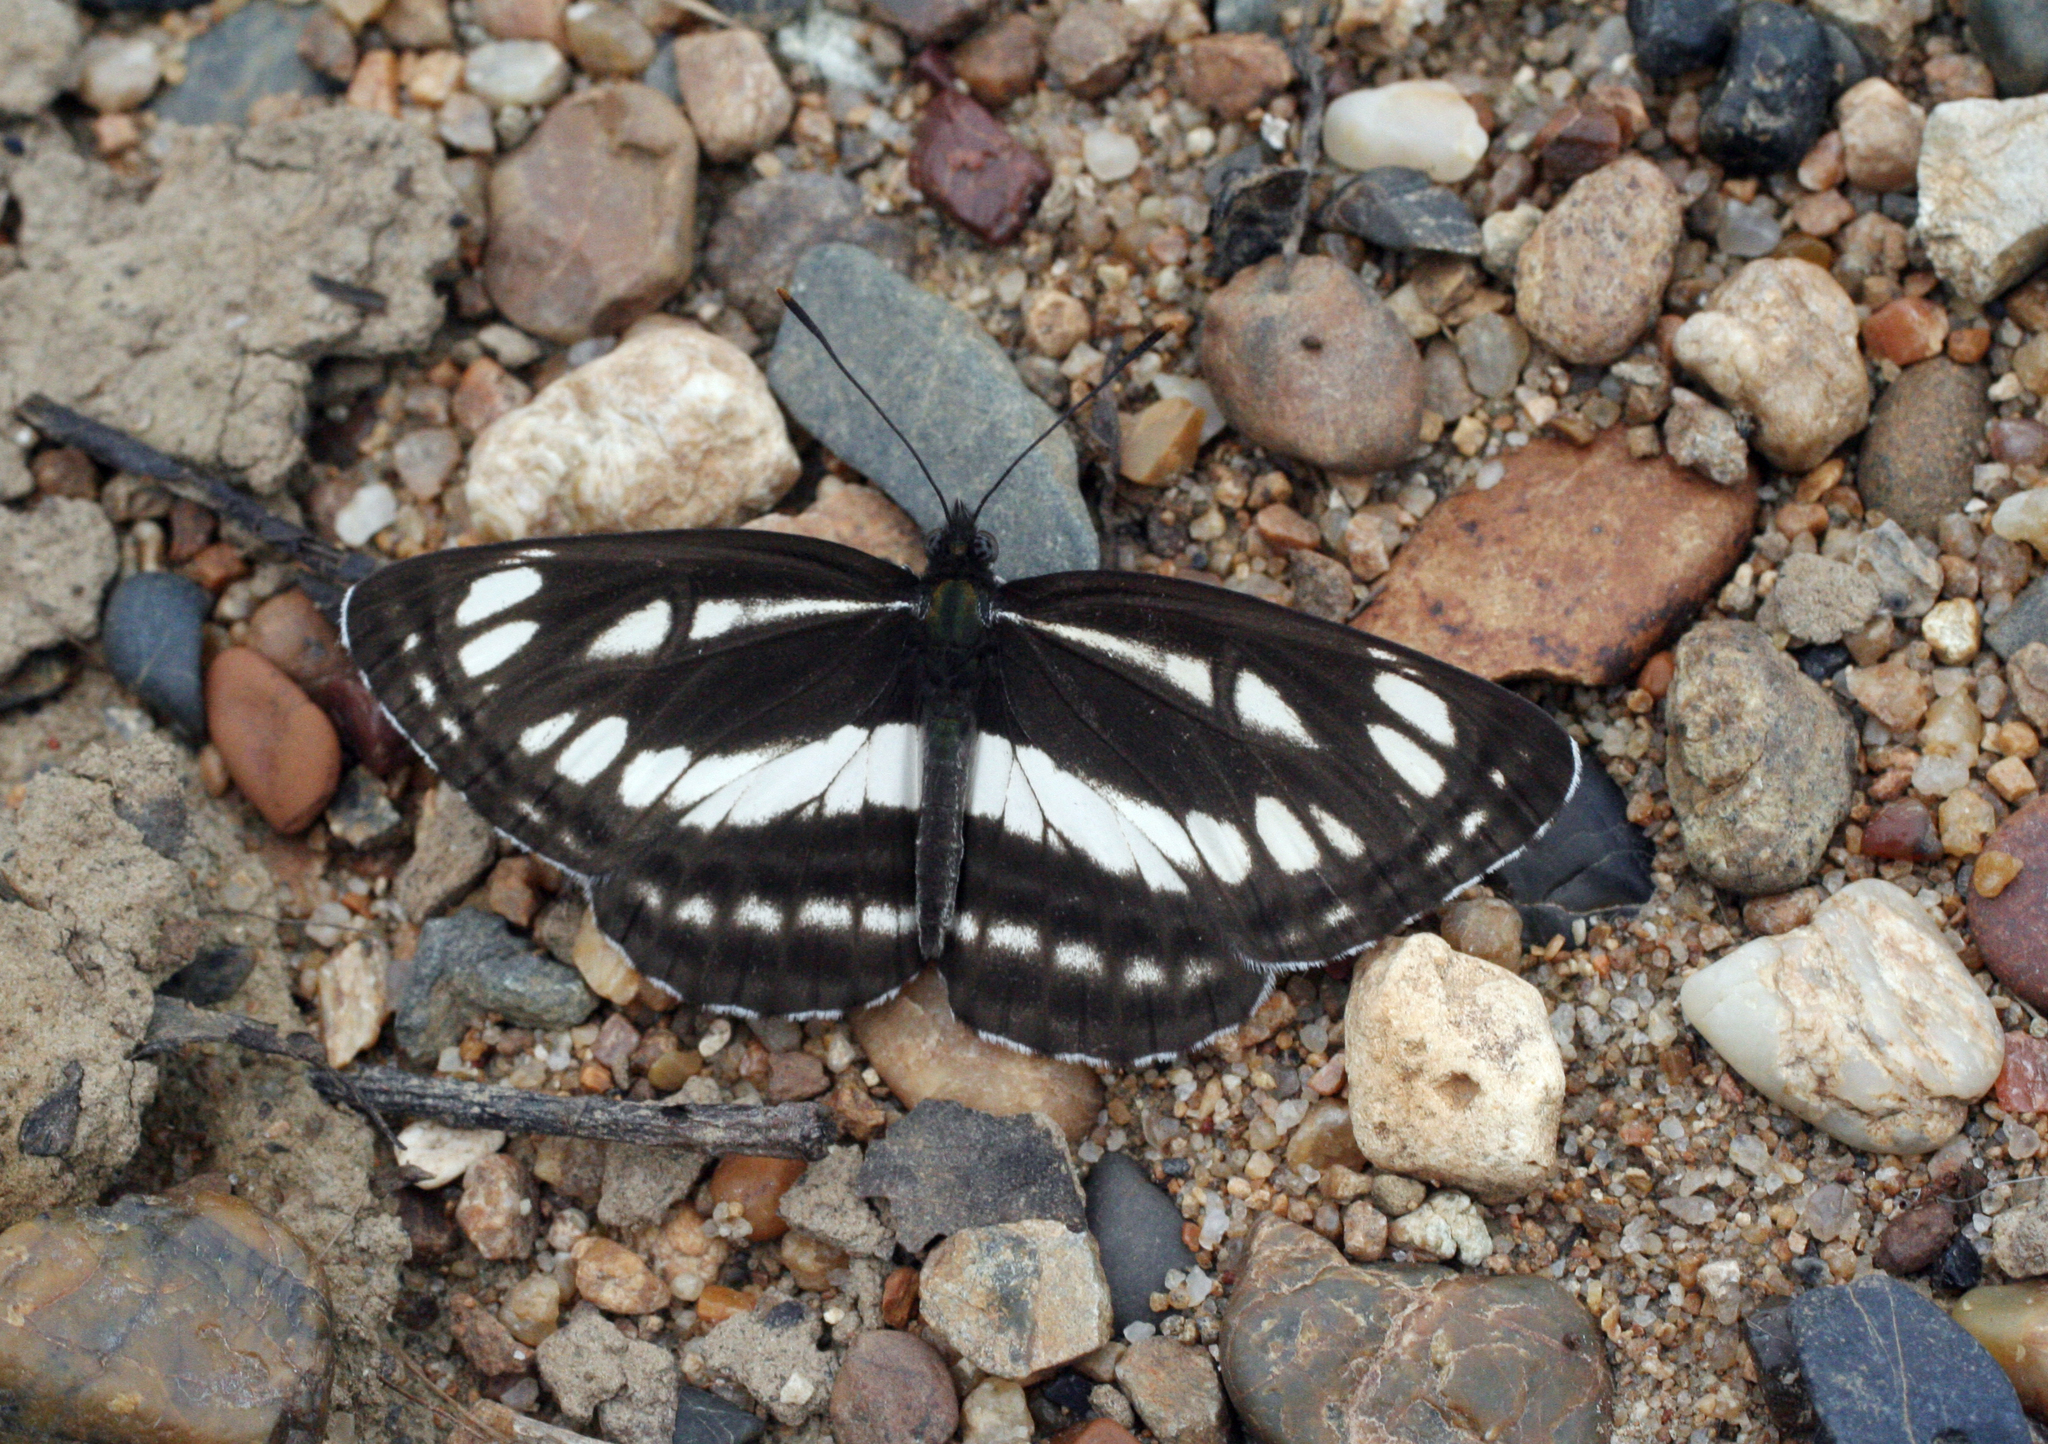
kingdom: Animalia
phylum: Arthropoda
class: Insecta
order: Lepidoptera
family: Nymphalidae
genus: Neptis
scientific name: Neptis sappho
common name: Common glider
